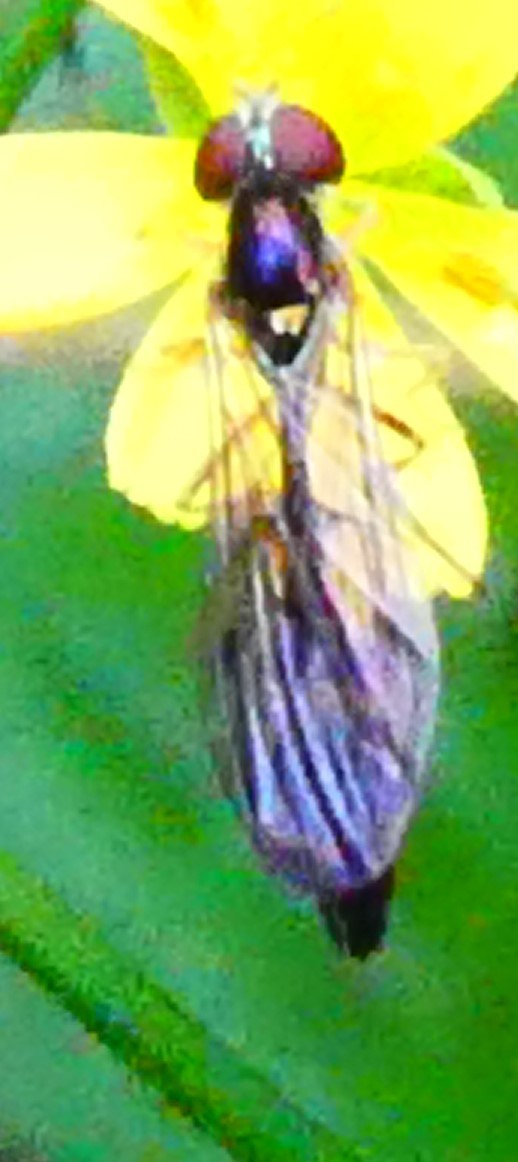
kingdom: Animalia
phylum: Arthropoda
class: Insecta
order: Diptera
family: Syrphidae
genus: Baccha
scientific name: Baccha elongata
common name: Common dainty
